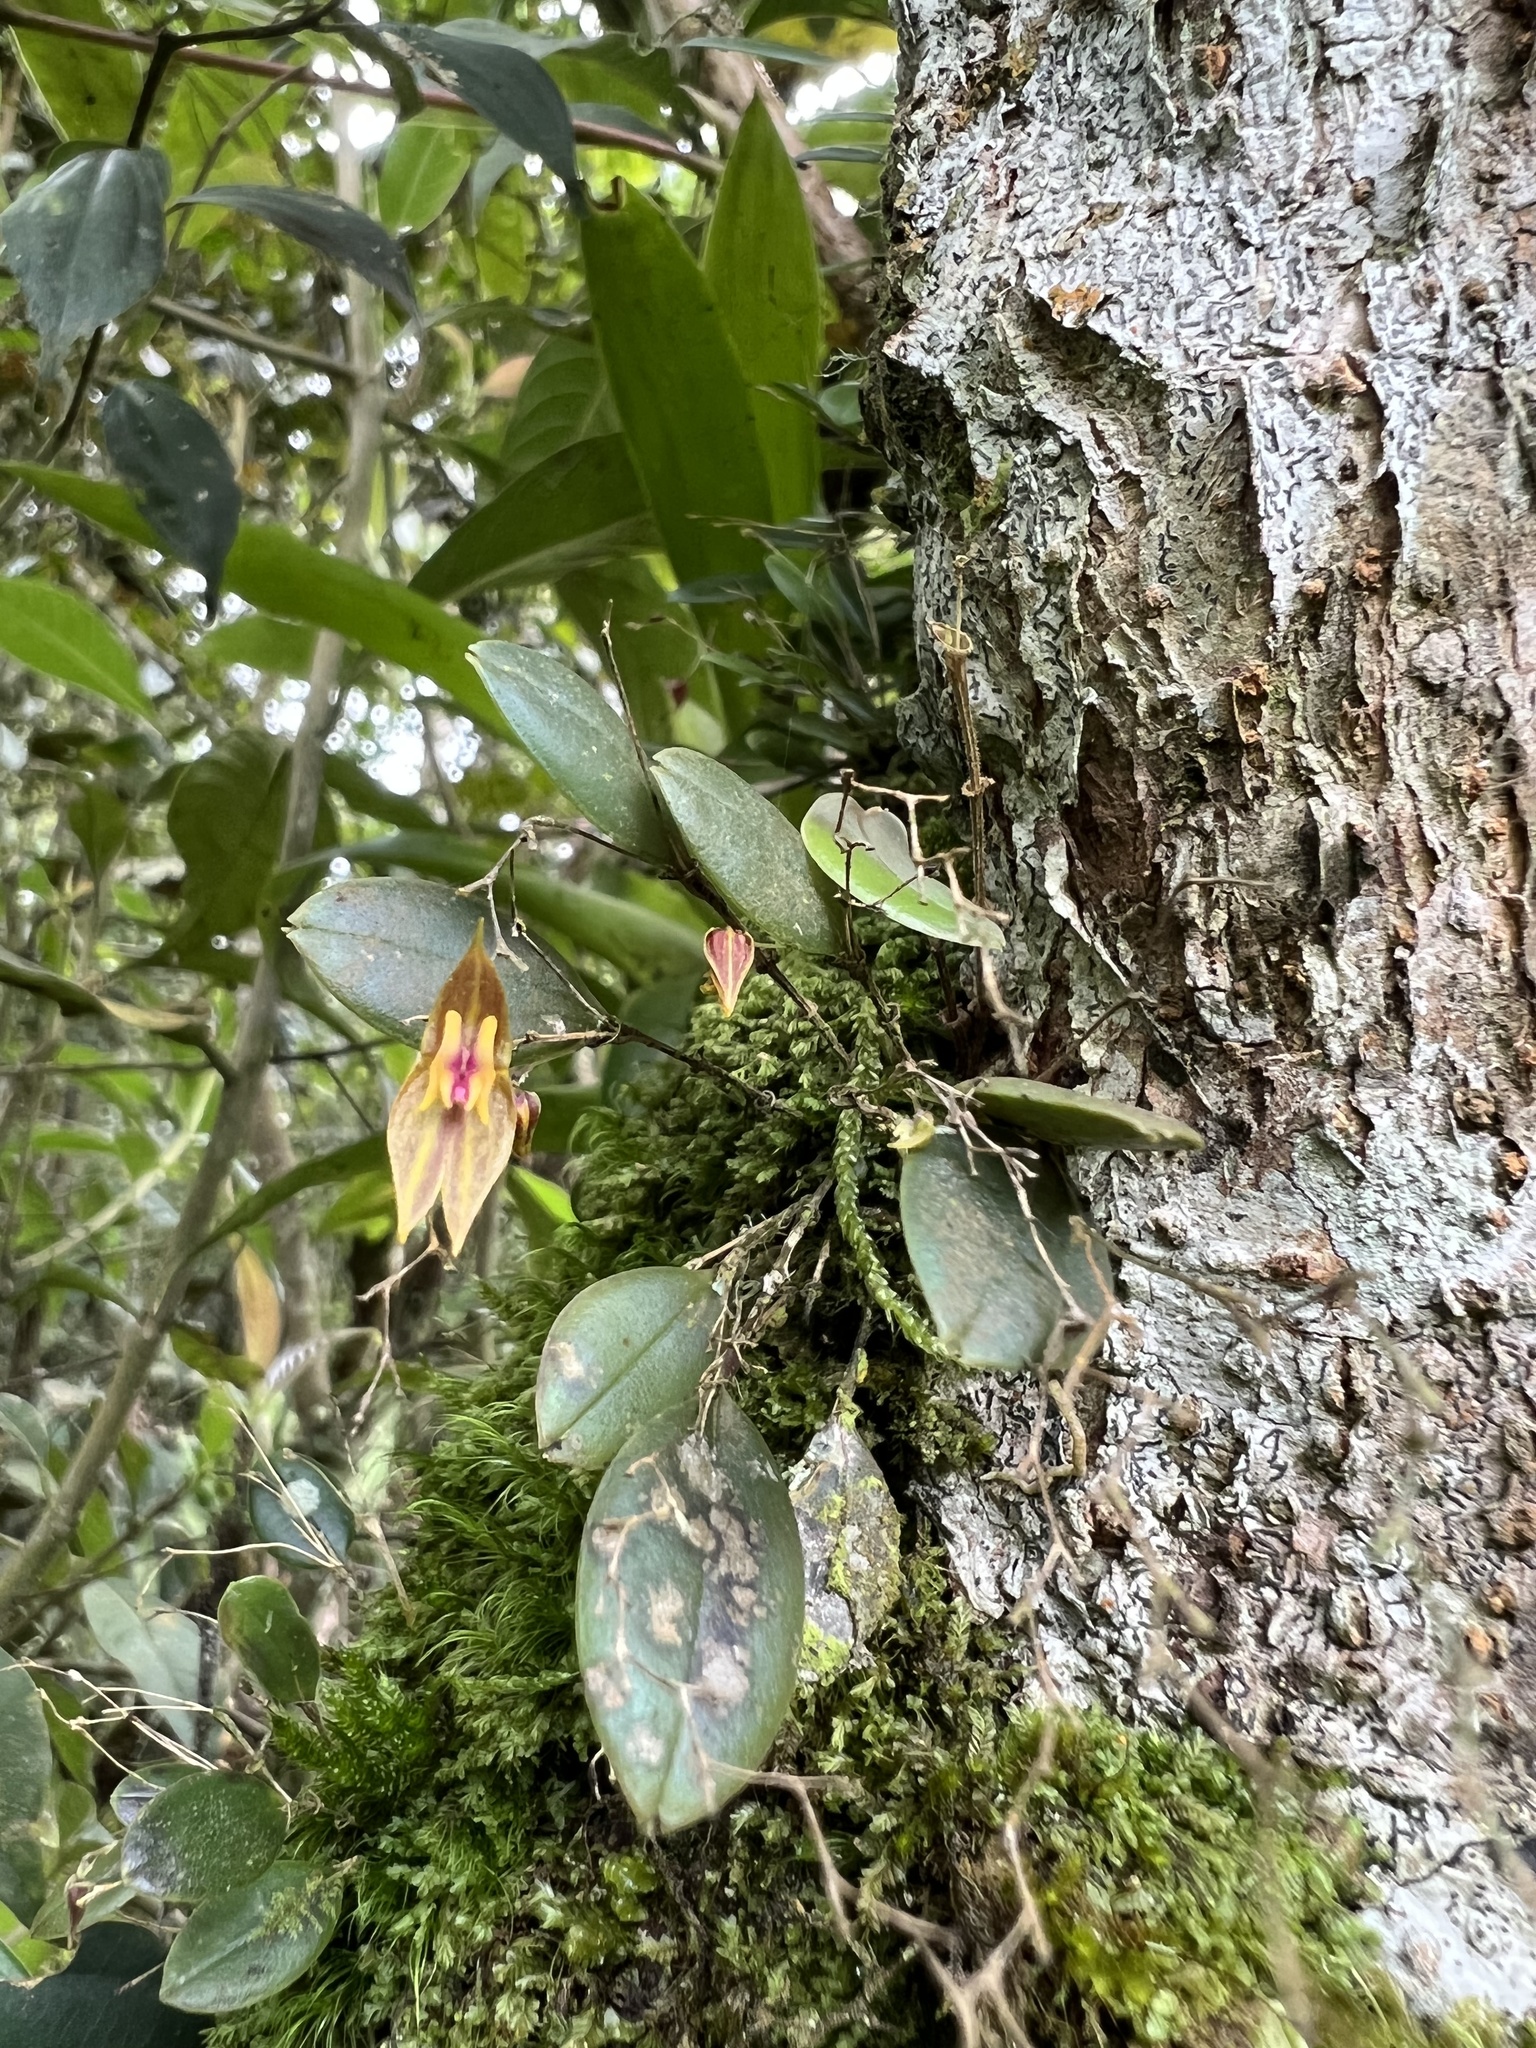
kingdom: Plantae
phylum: Tracheophyta
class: Liliopsida
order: Asparagales
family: Orchidaceae
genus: Lepanthes
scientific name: Lepanthes effusa
